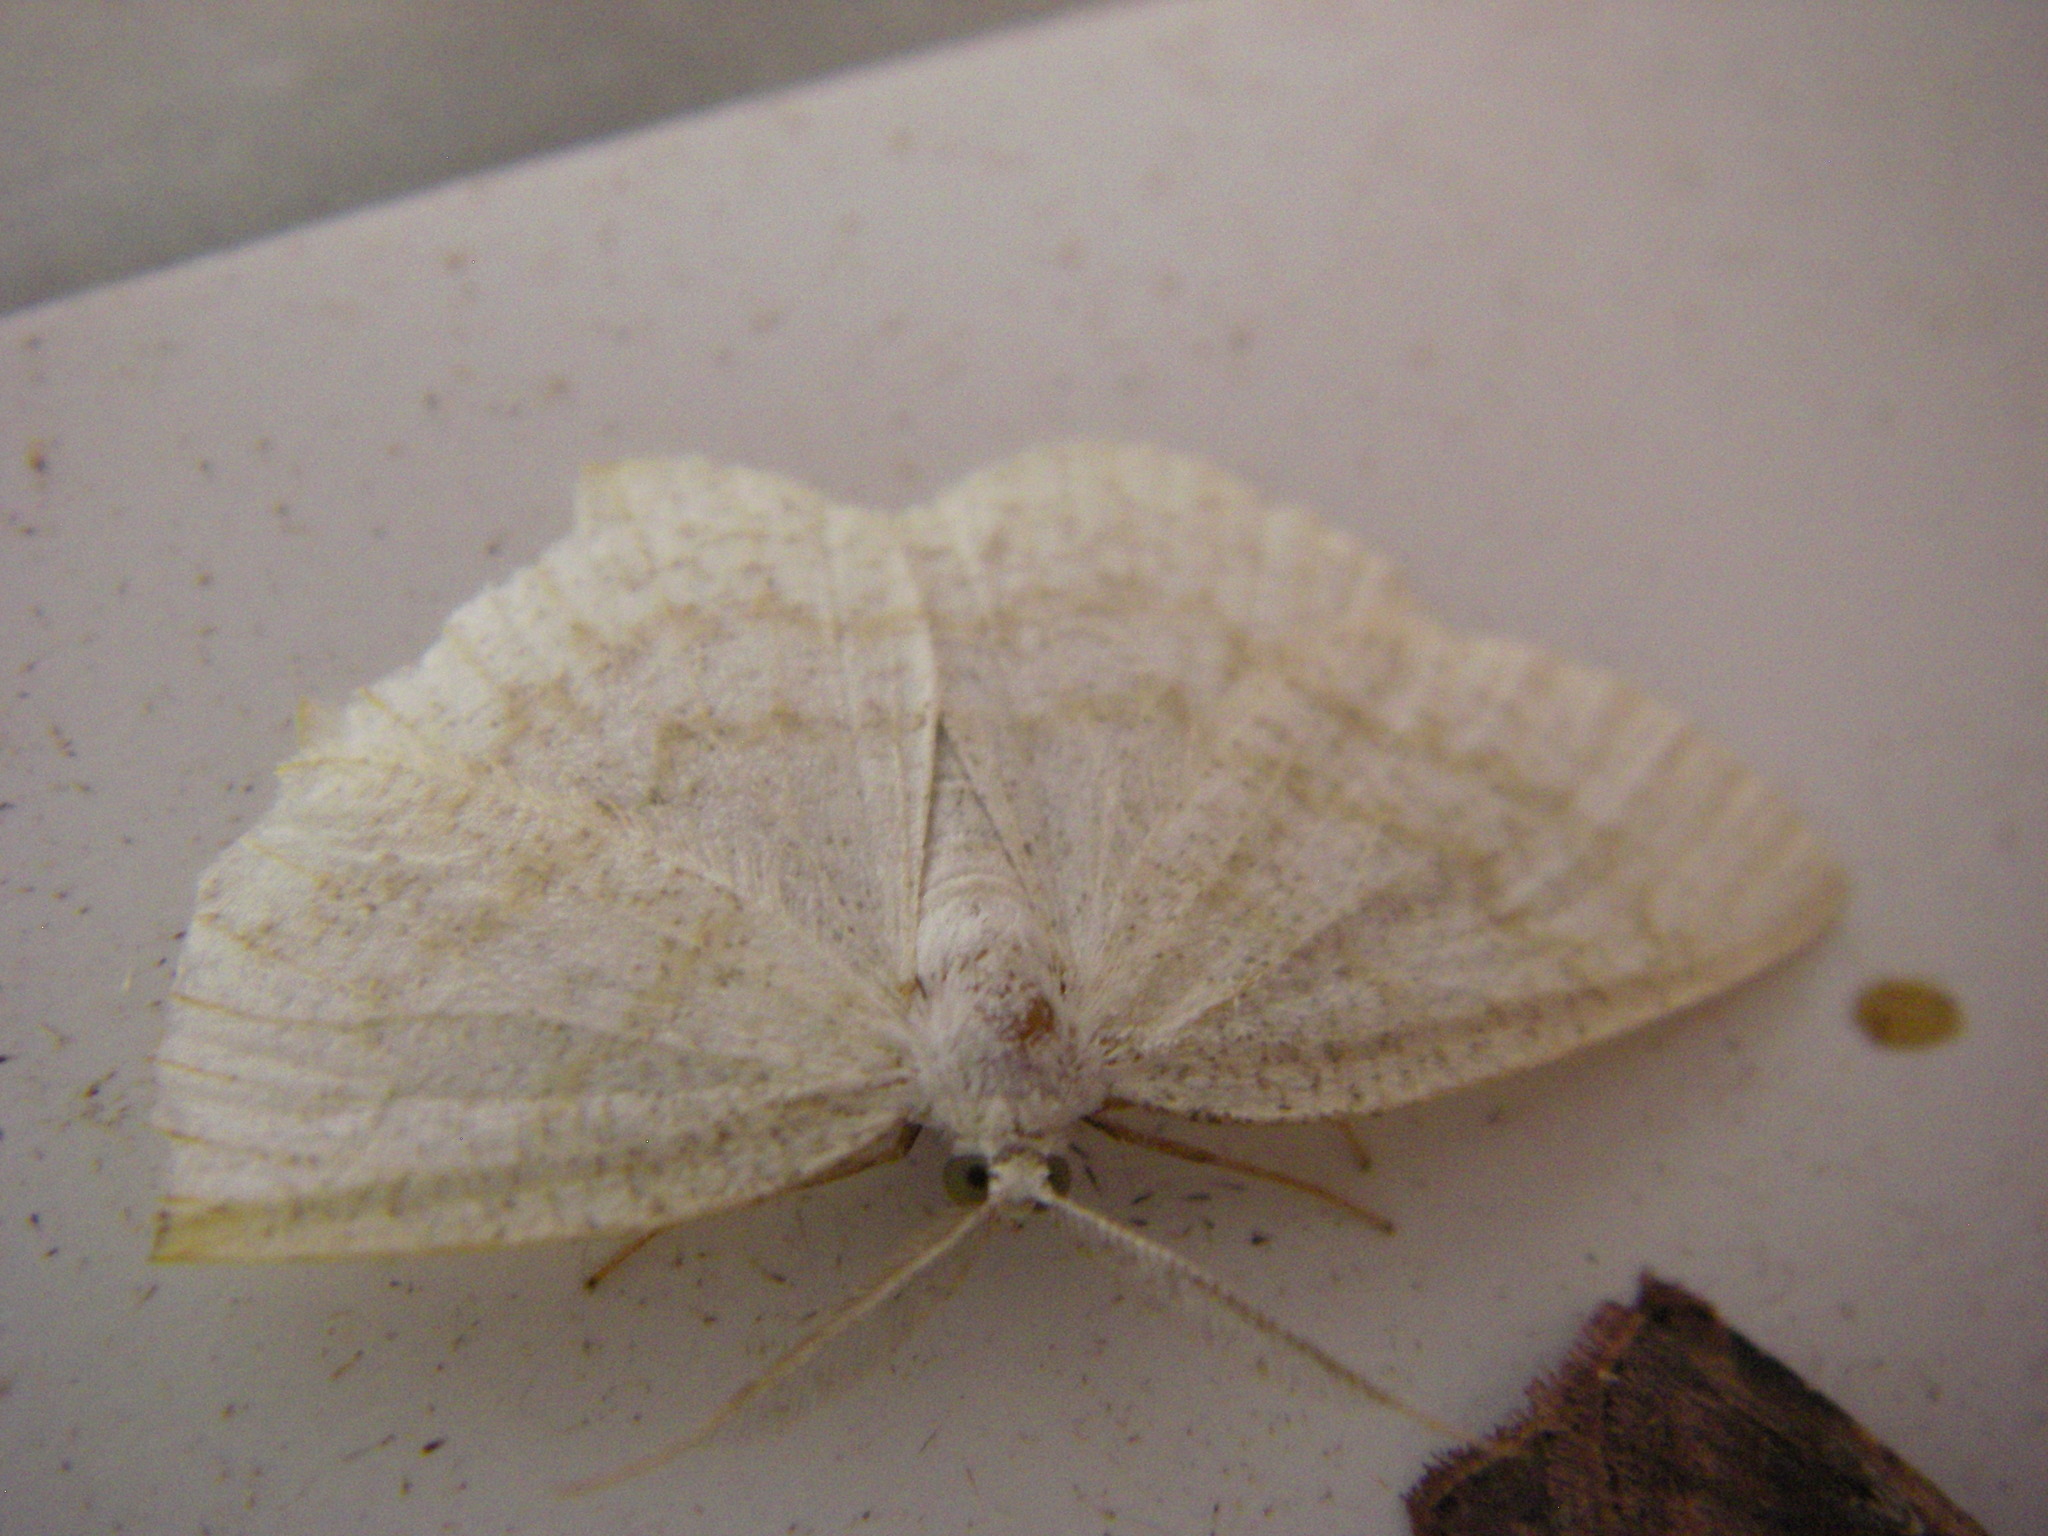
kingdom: Animalia
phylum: Arthropoda
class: Insecta
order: Lepidoptera
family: Geometridae
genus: Cabera
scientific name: Cabera exanthemata
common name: Common wave
